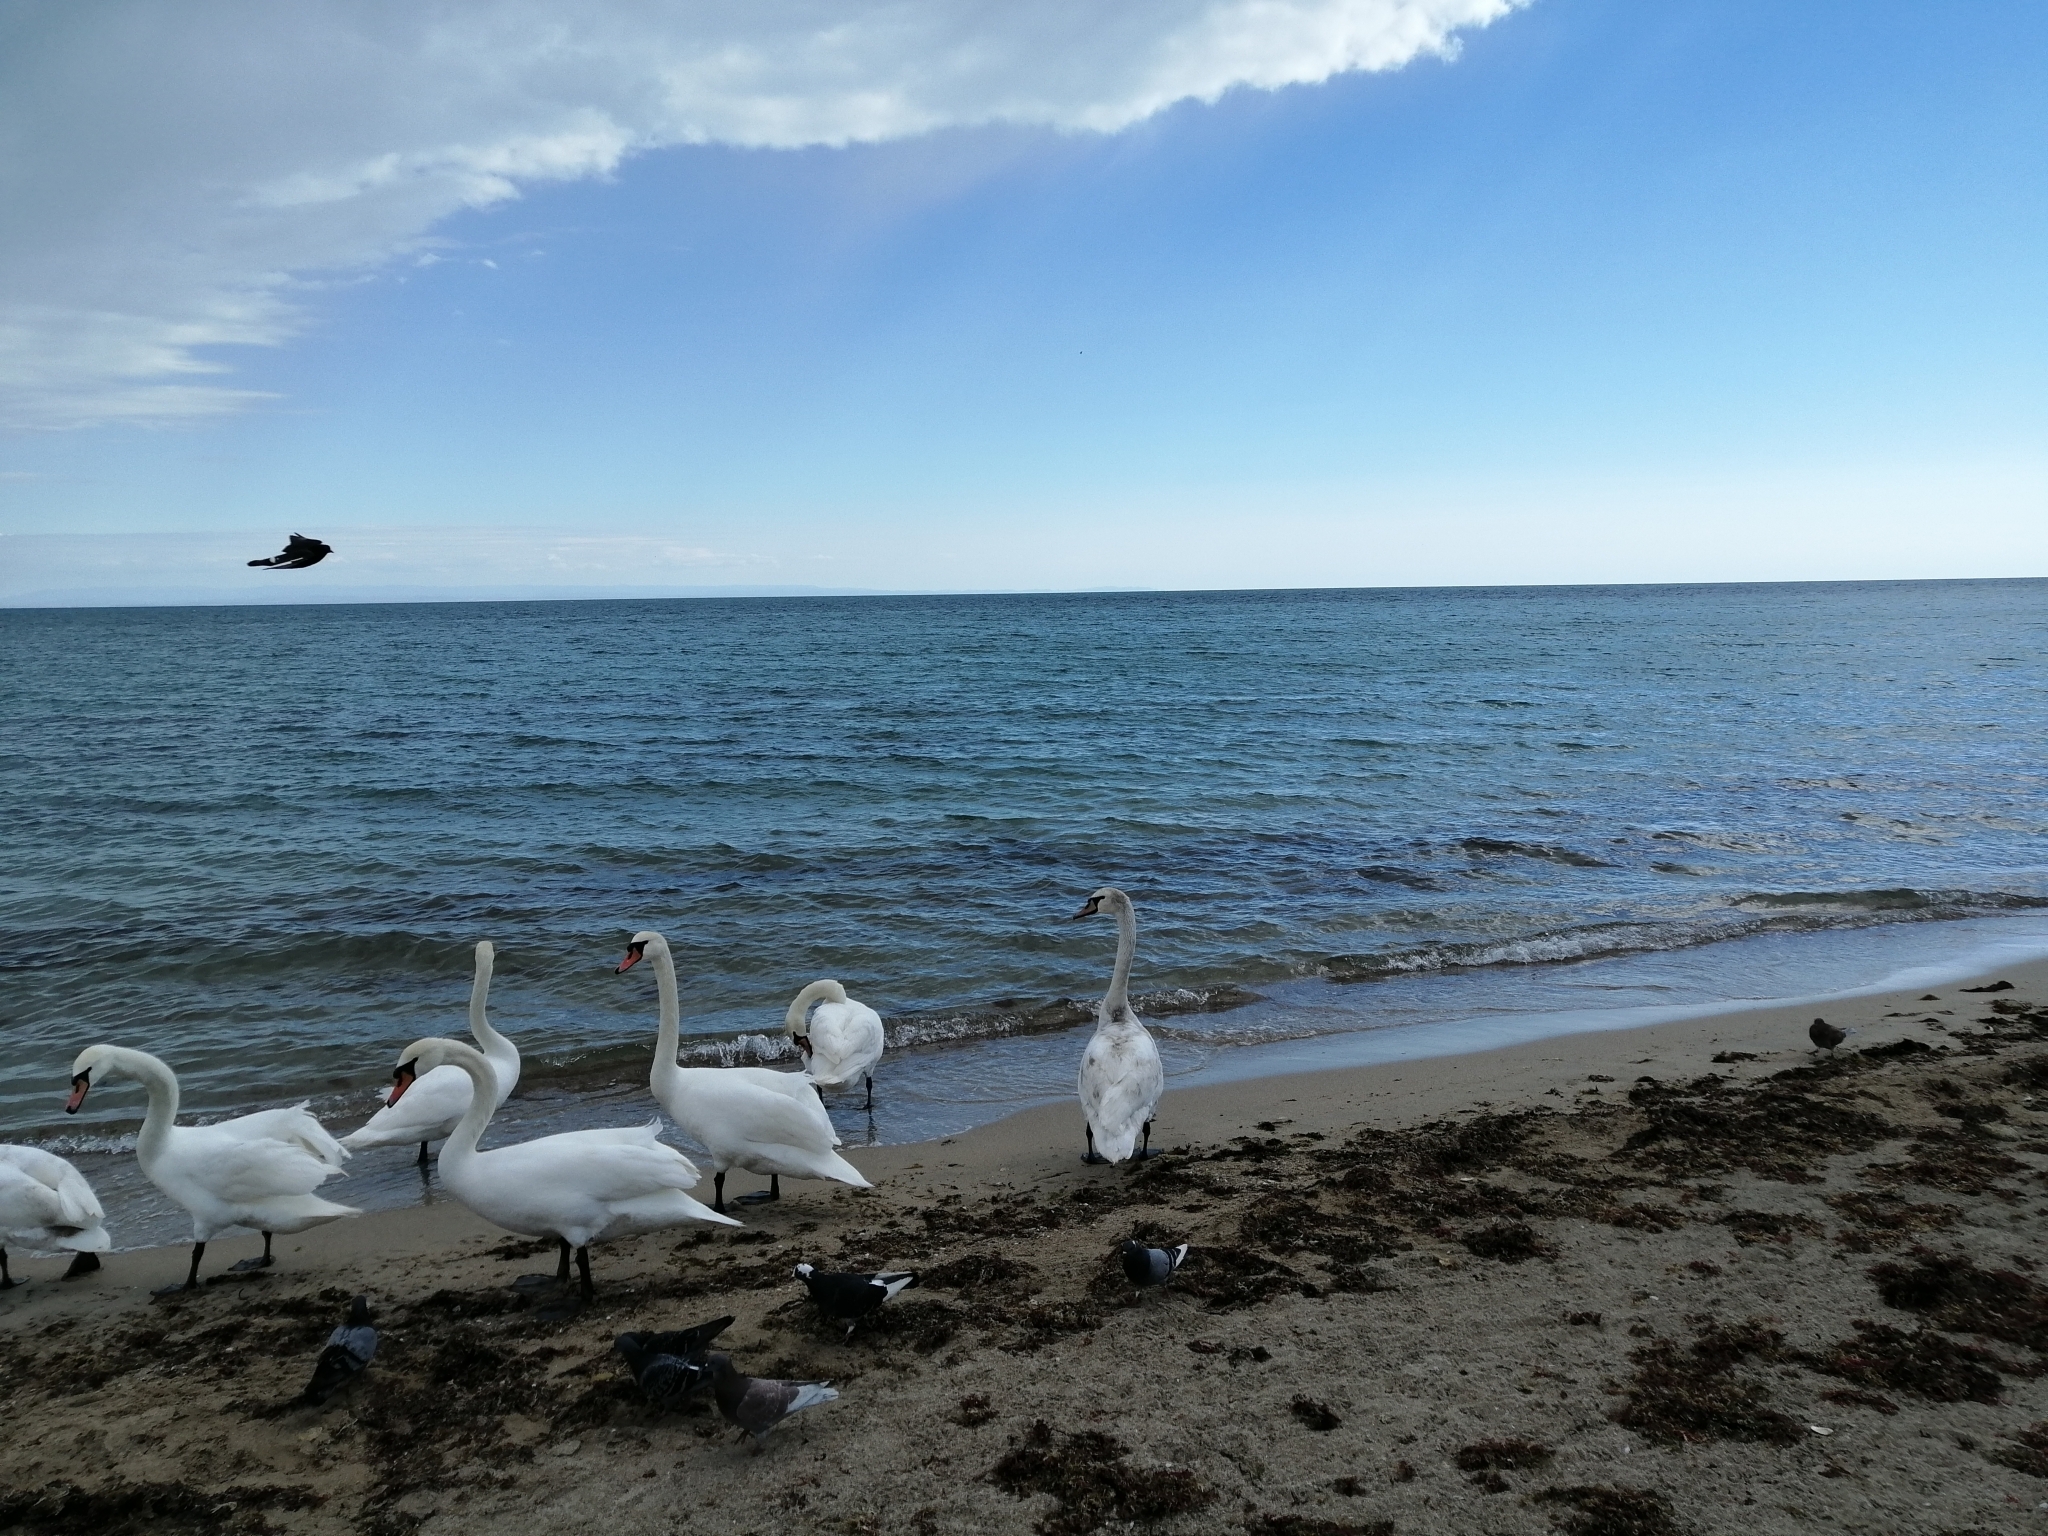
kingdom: Animalia
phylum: Chordata
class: Aves
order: Anseriformes
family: Anatidae
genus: Cygnus
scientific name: Cygnus olor
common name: Mute swan
